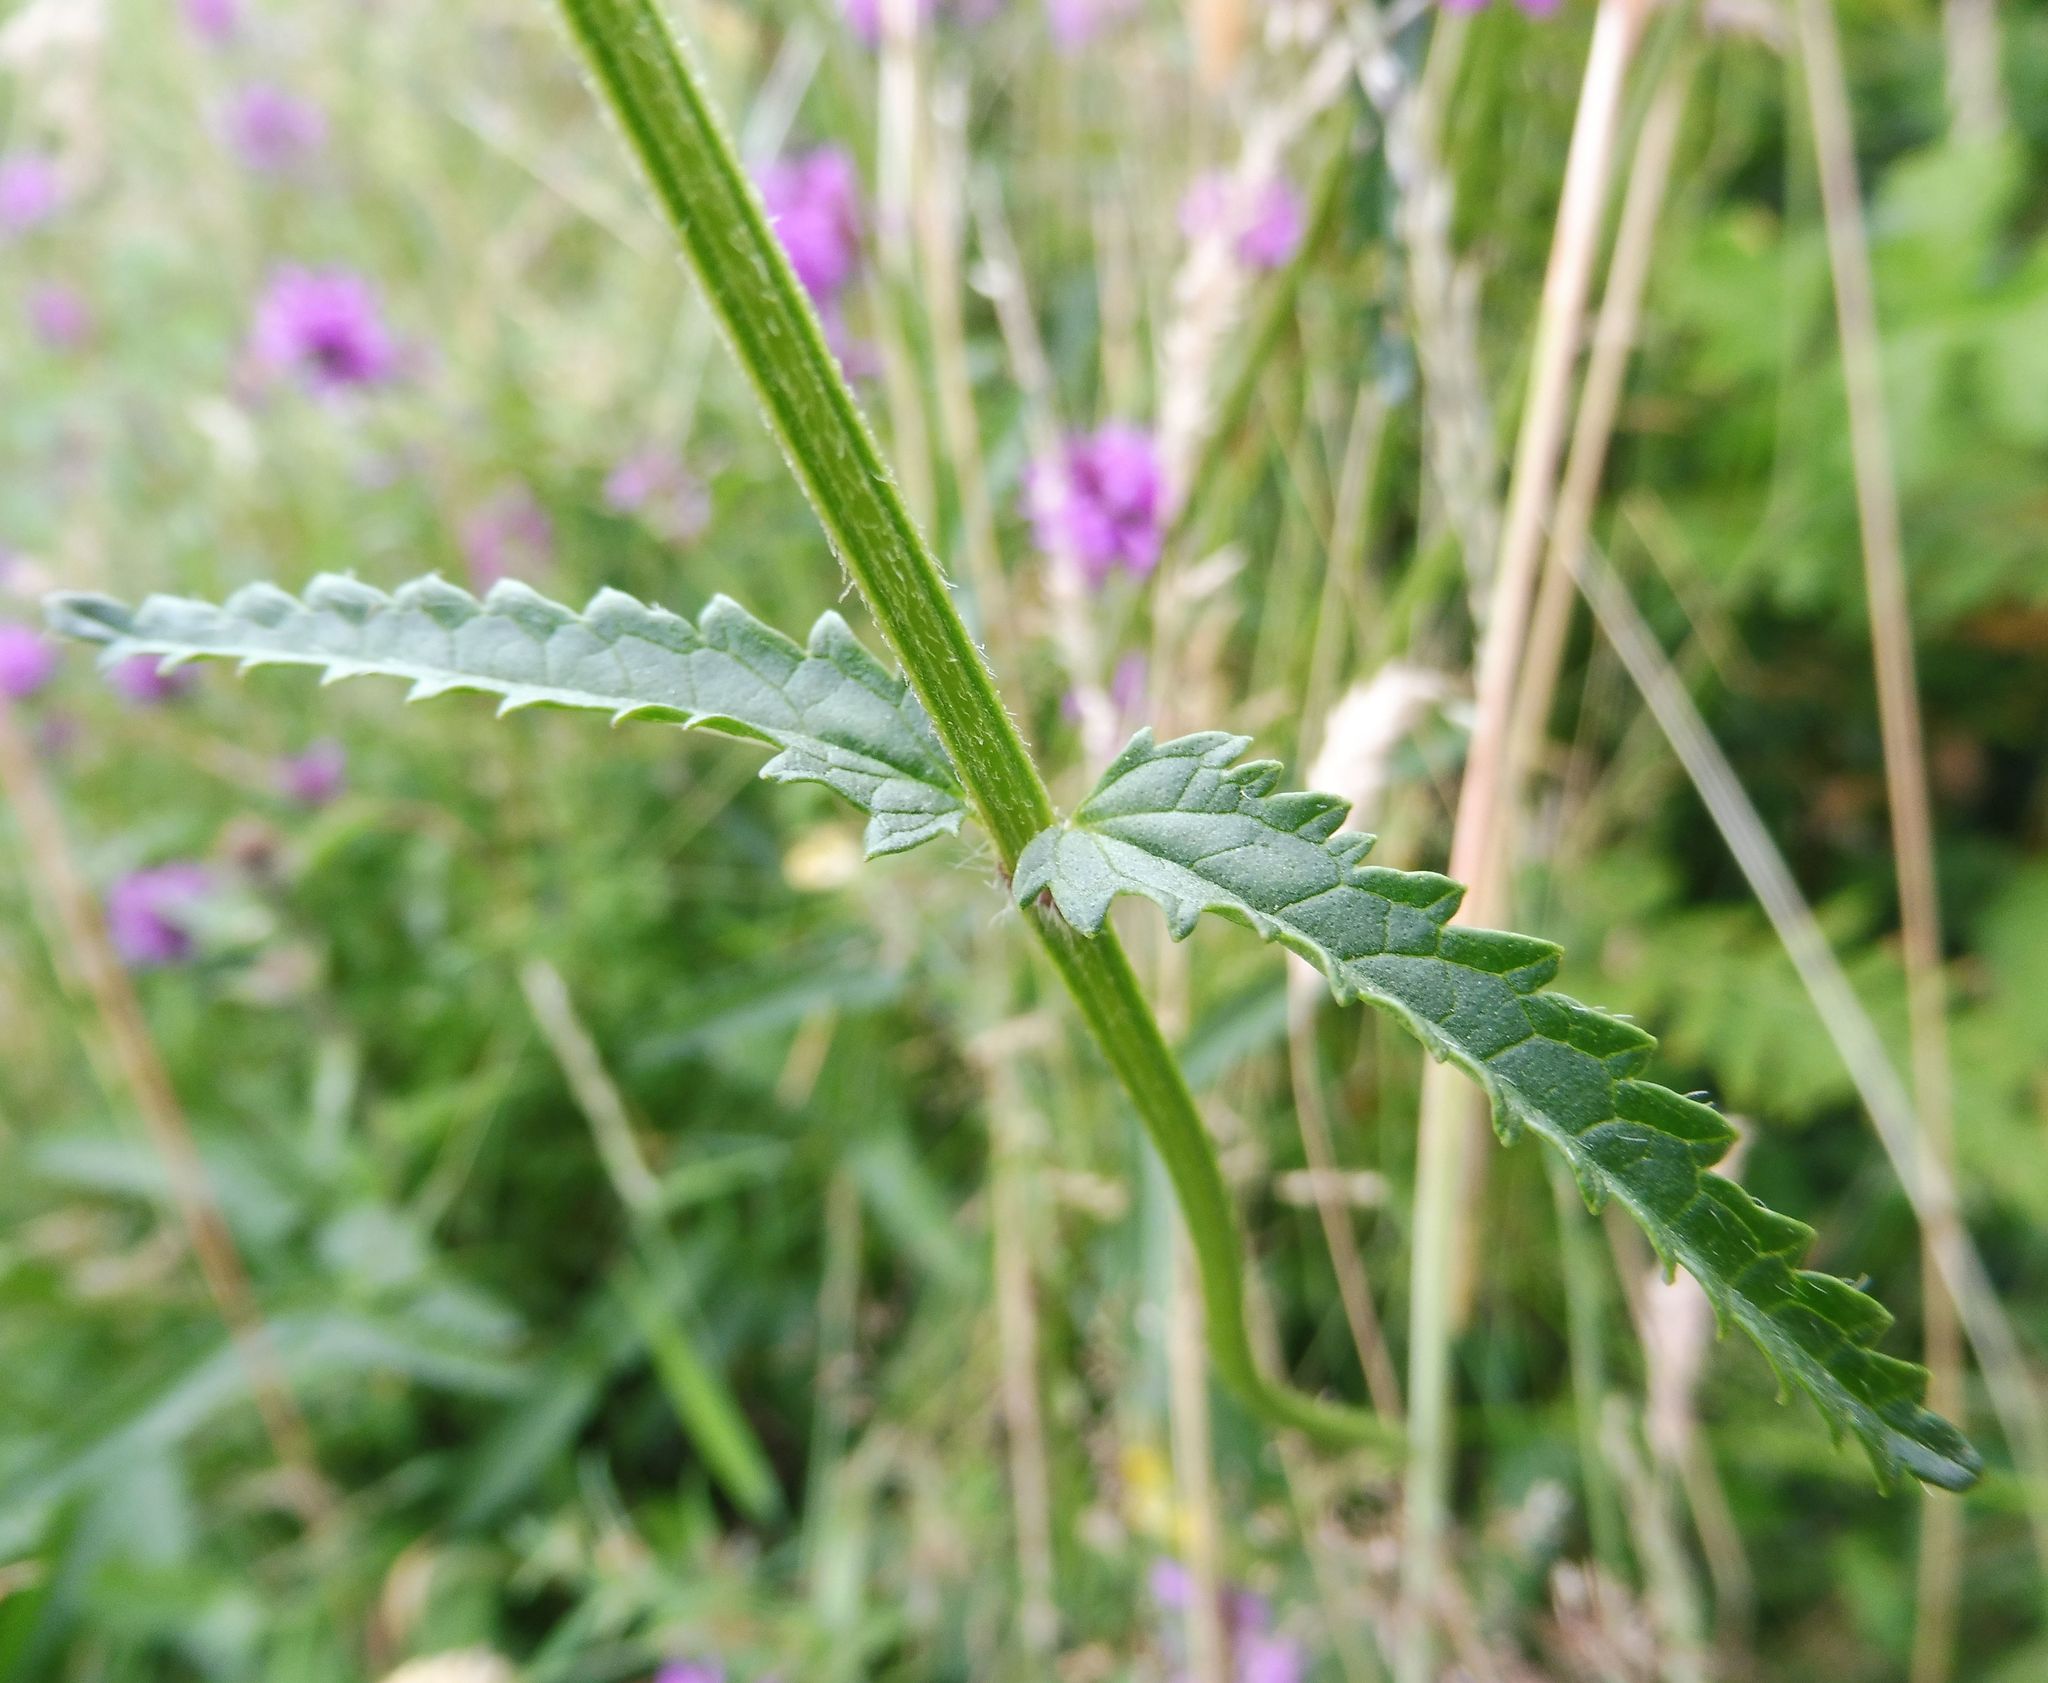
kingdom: Plantae
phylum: Tracheophyta
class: Magnoliopsida
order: Lamiales
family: Lamiaceae
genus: Betonica
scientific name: Betonica officinalis
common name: Bishop's-wort
